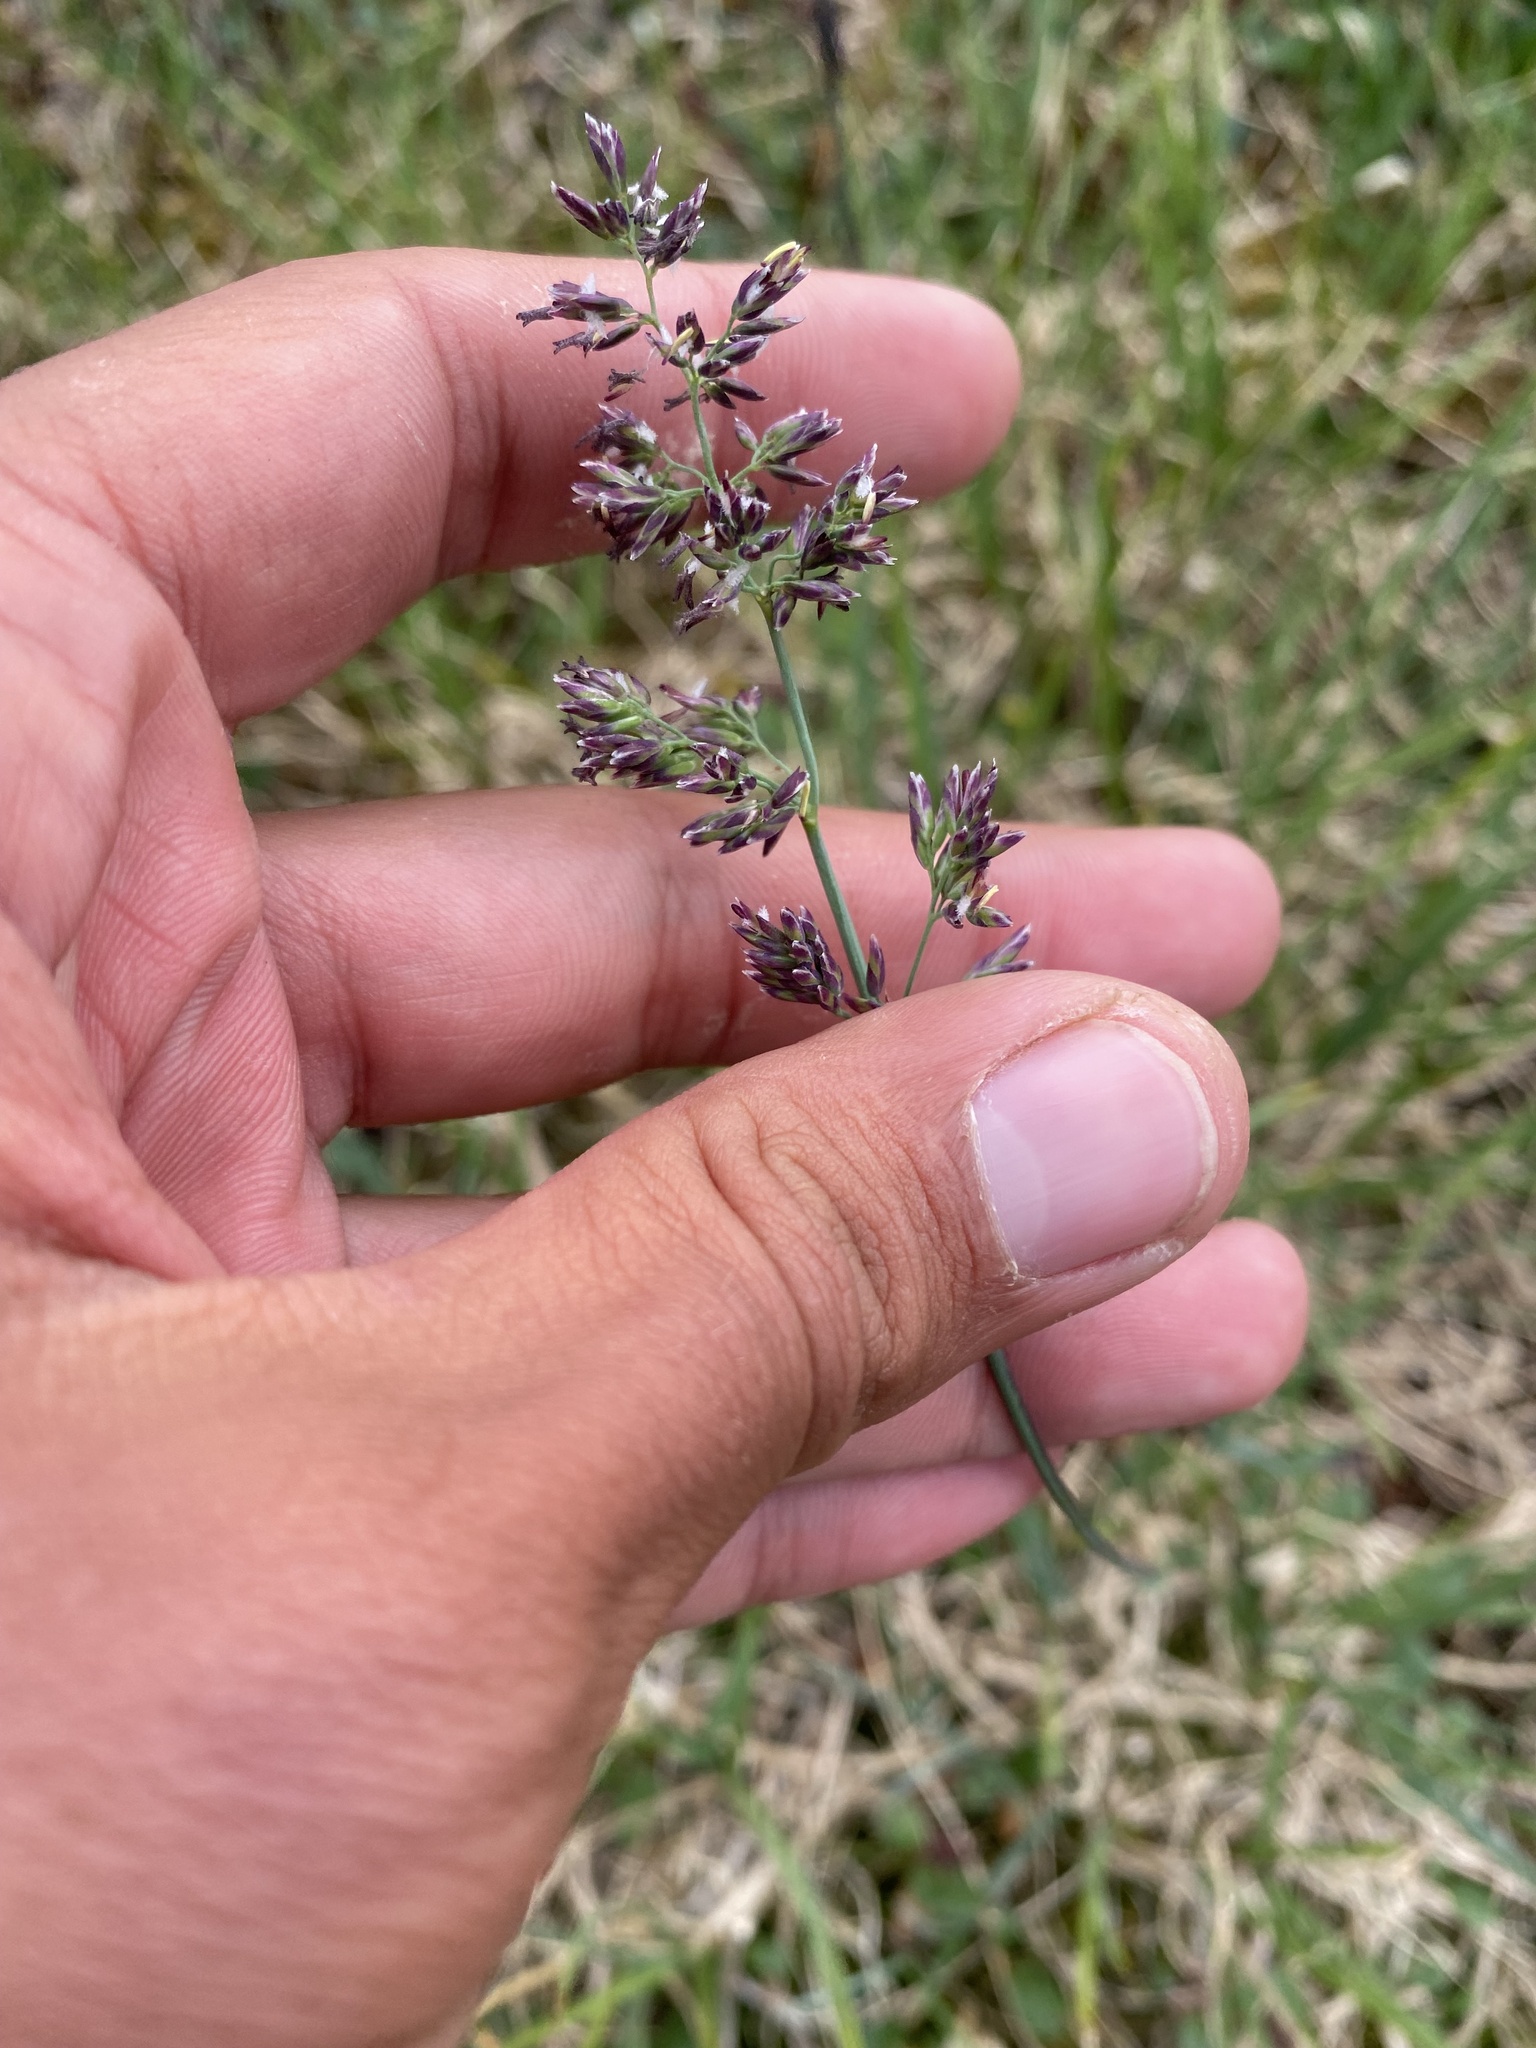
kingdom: Plantae
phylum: Tracheophyta
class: Liliopsida
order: Poales
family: Poaceae
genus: Arctagrostis
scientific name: Arctagrostis latifolia
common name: Arctic grass
